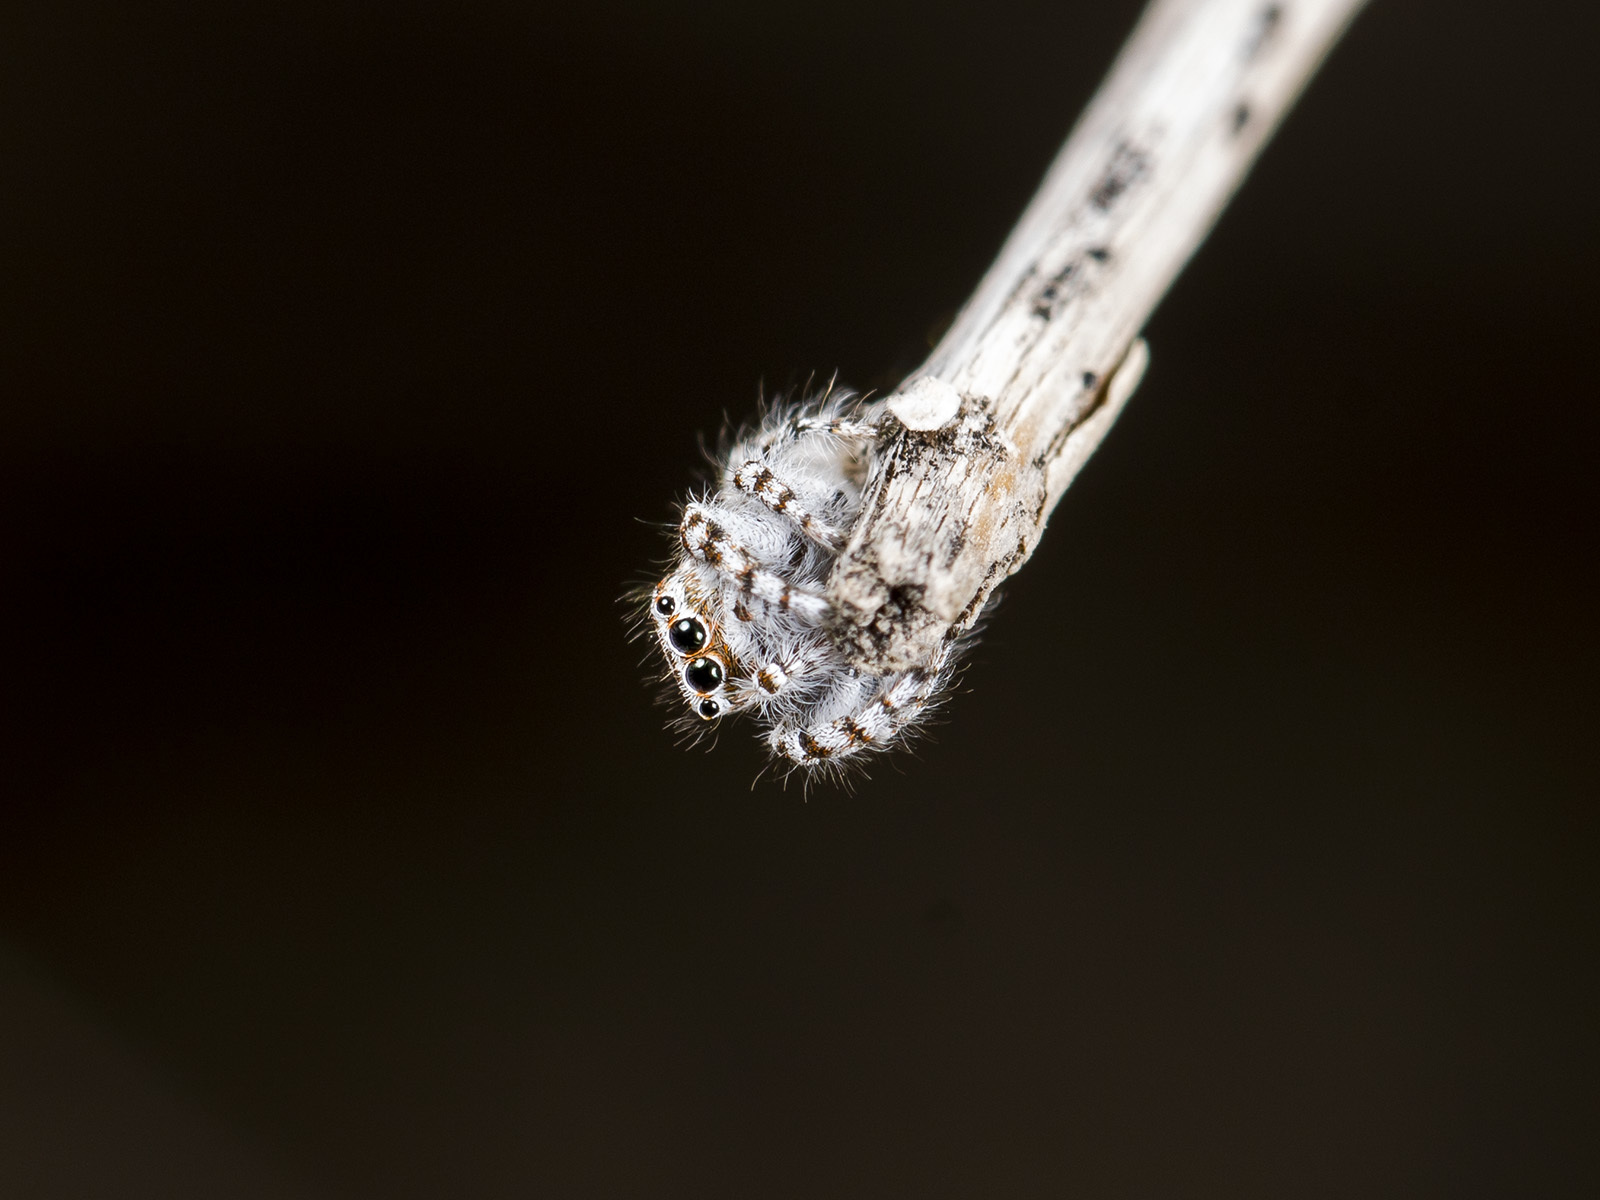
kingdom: Animalia
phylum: Arthropoda
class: Arachnida
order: Araneae
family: Salticidae
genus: Pseudomogrus
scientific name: Pseudomogrus dalaensis
